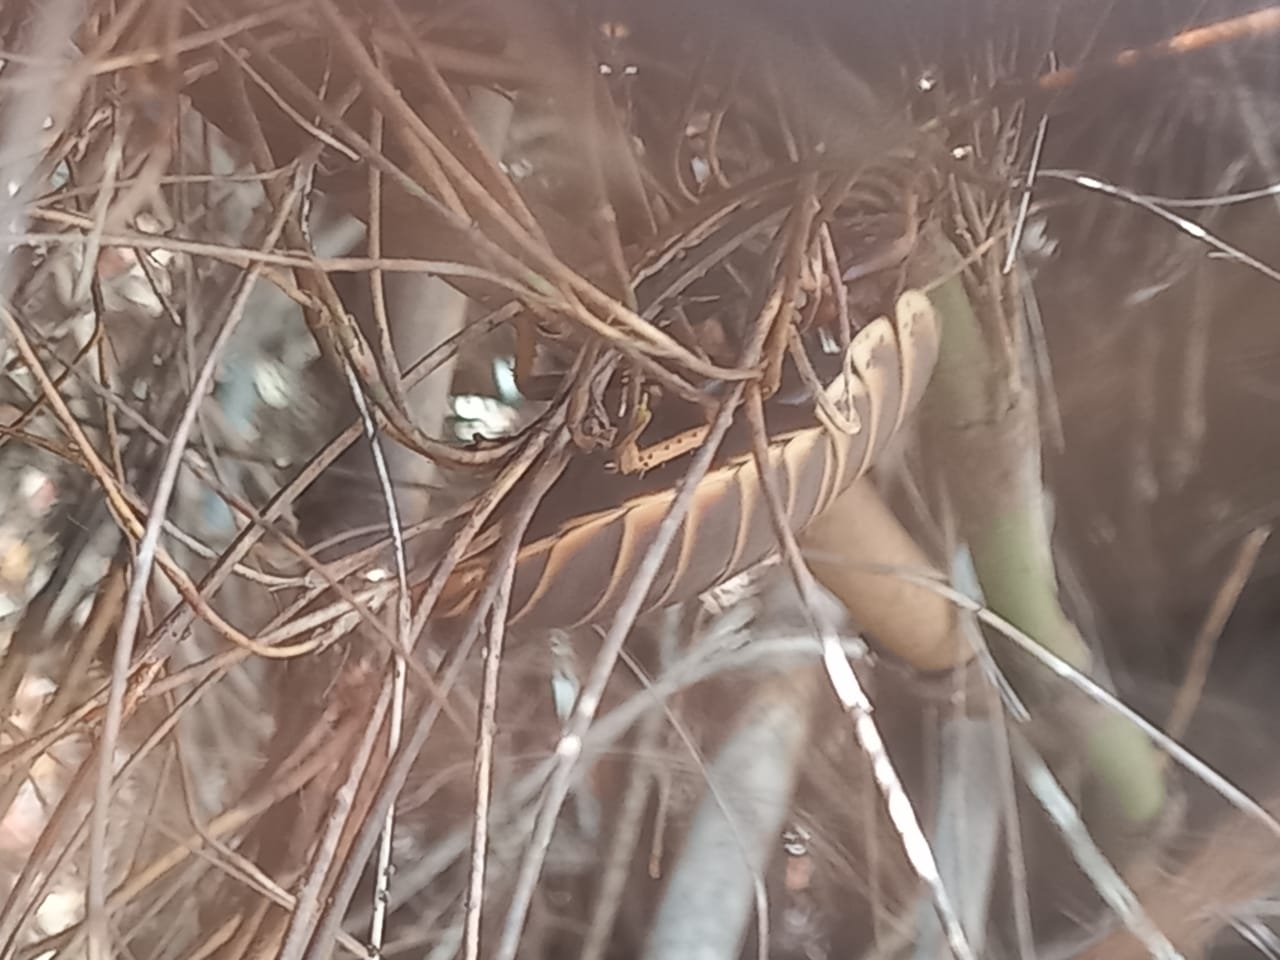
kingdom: Animalia
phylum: Arthropoda
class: Insecta
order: Blattodea
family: Blaberidae
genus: Aptera
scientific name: Aptera fusca
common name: Cape mountain cockroach
